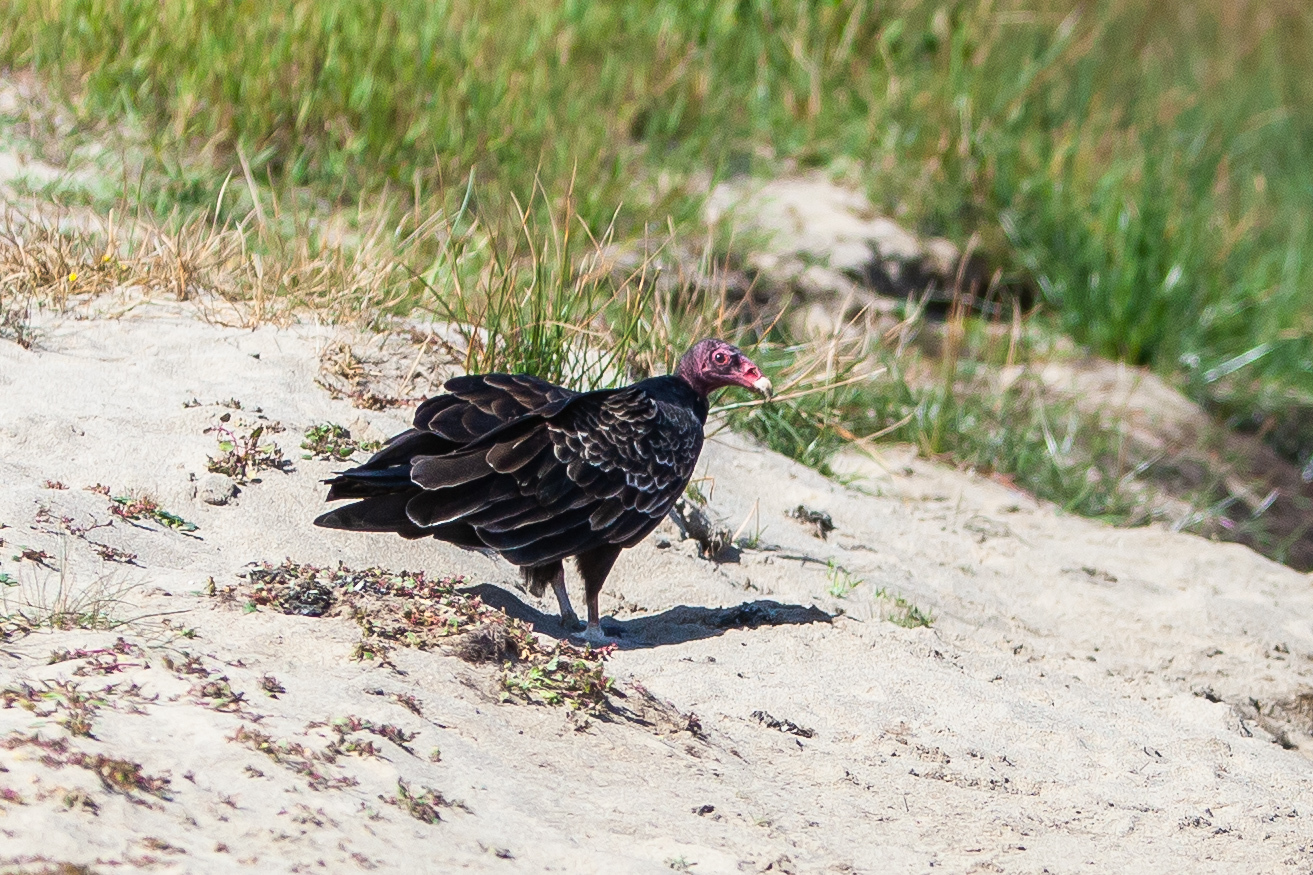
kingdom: Animalia
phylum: Chordata
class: Aves
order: Accipitriformes
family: Cathartidae
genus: Cathartes
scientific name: Cathartes aura
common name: Turkey vulture
